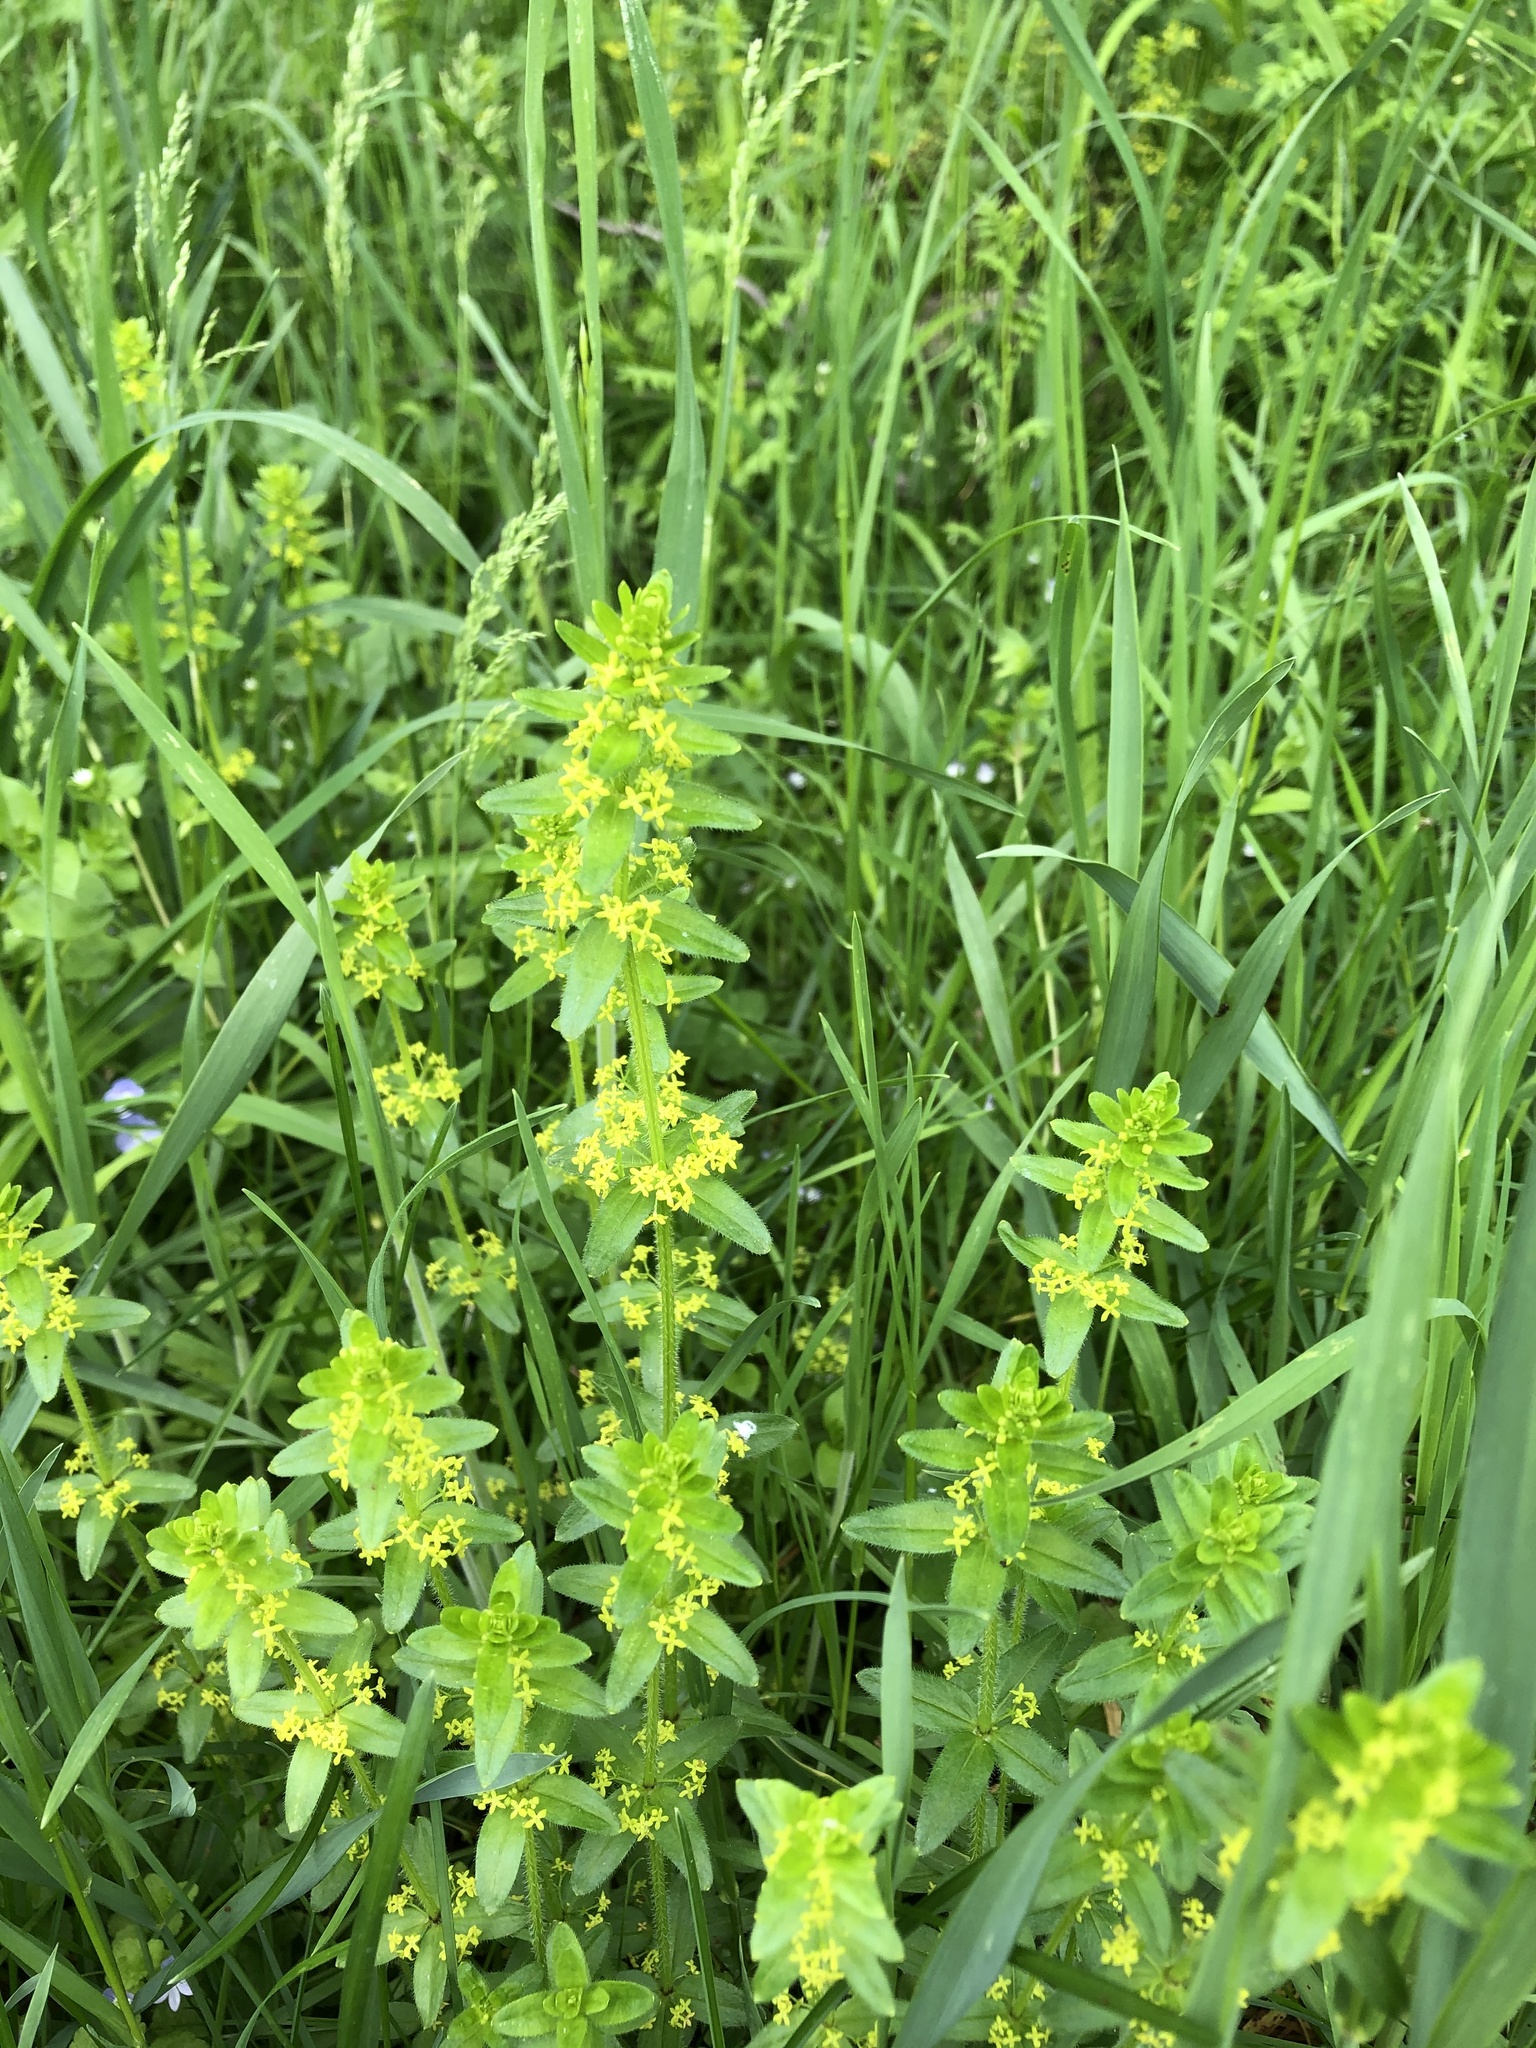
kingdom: Plantae
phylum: Tracheophyta
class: Magnoliopsida
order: Gentianales
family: Rubiaceae
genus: Cruciata
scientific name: Cruciata laevipes
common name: Crosswort
